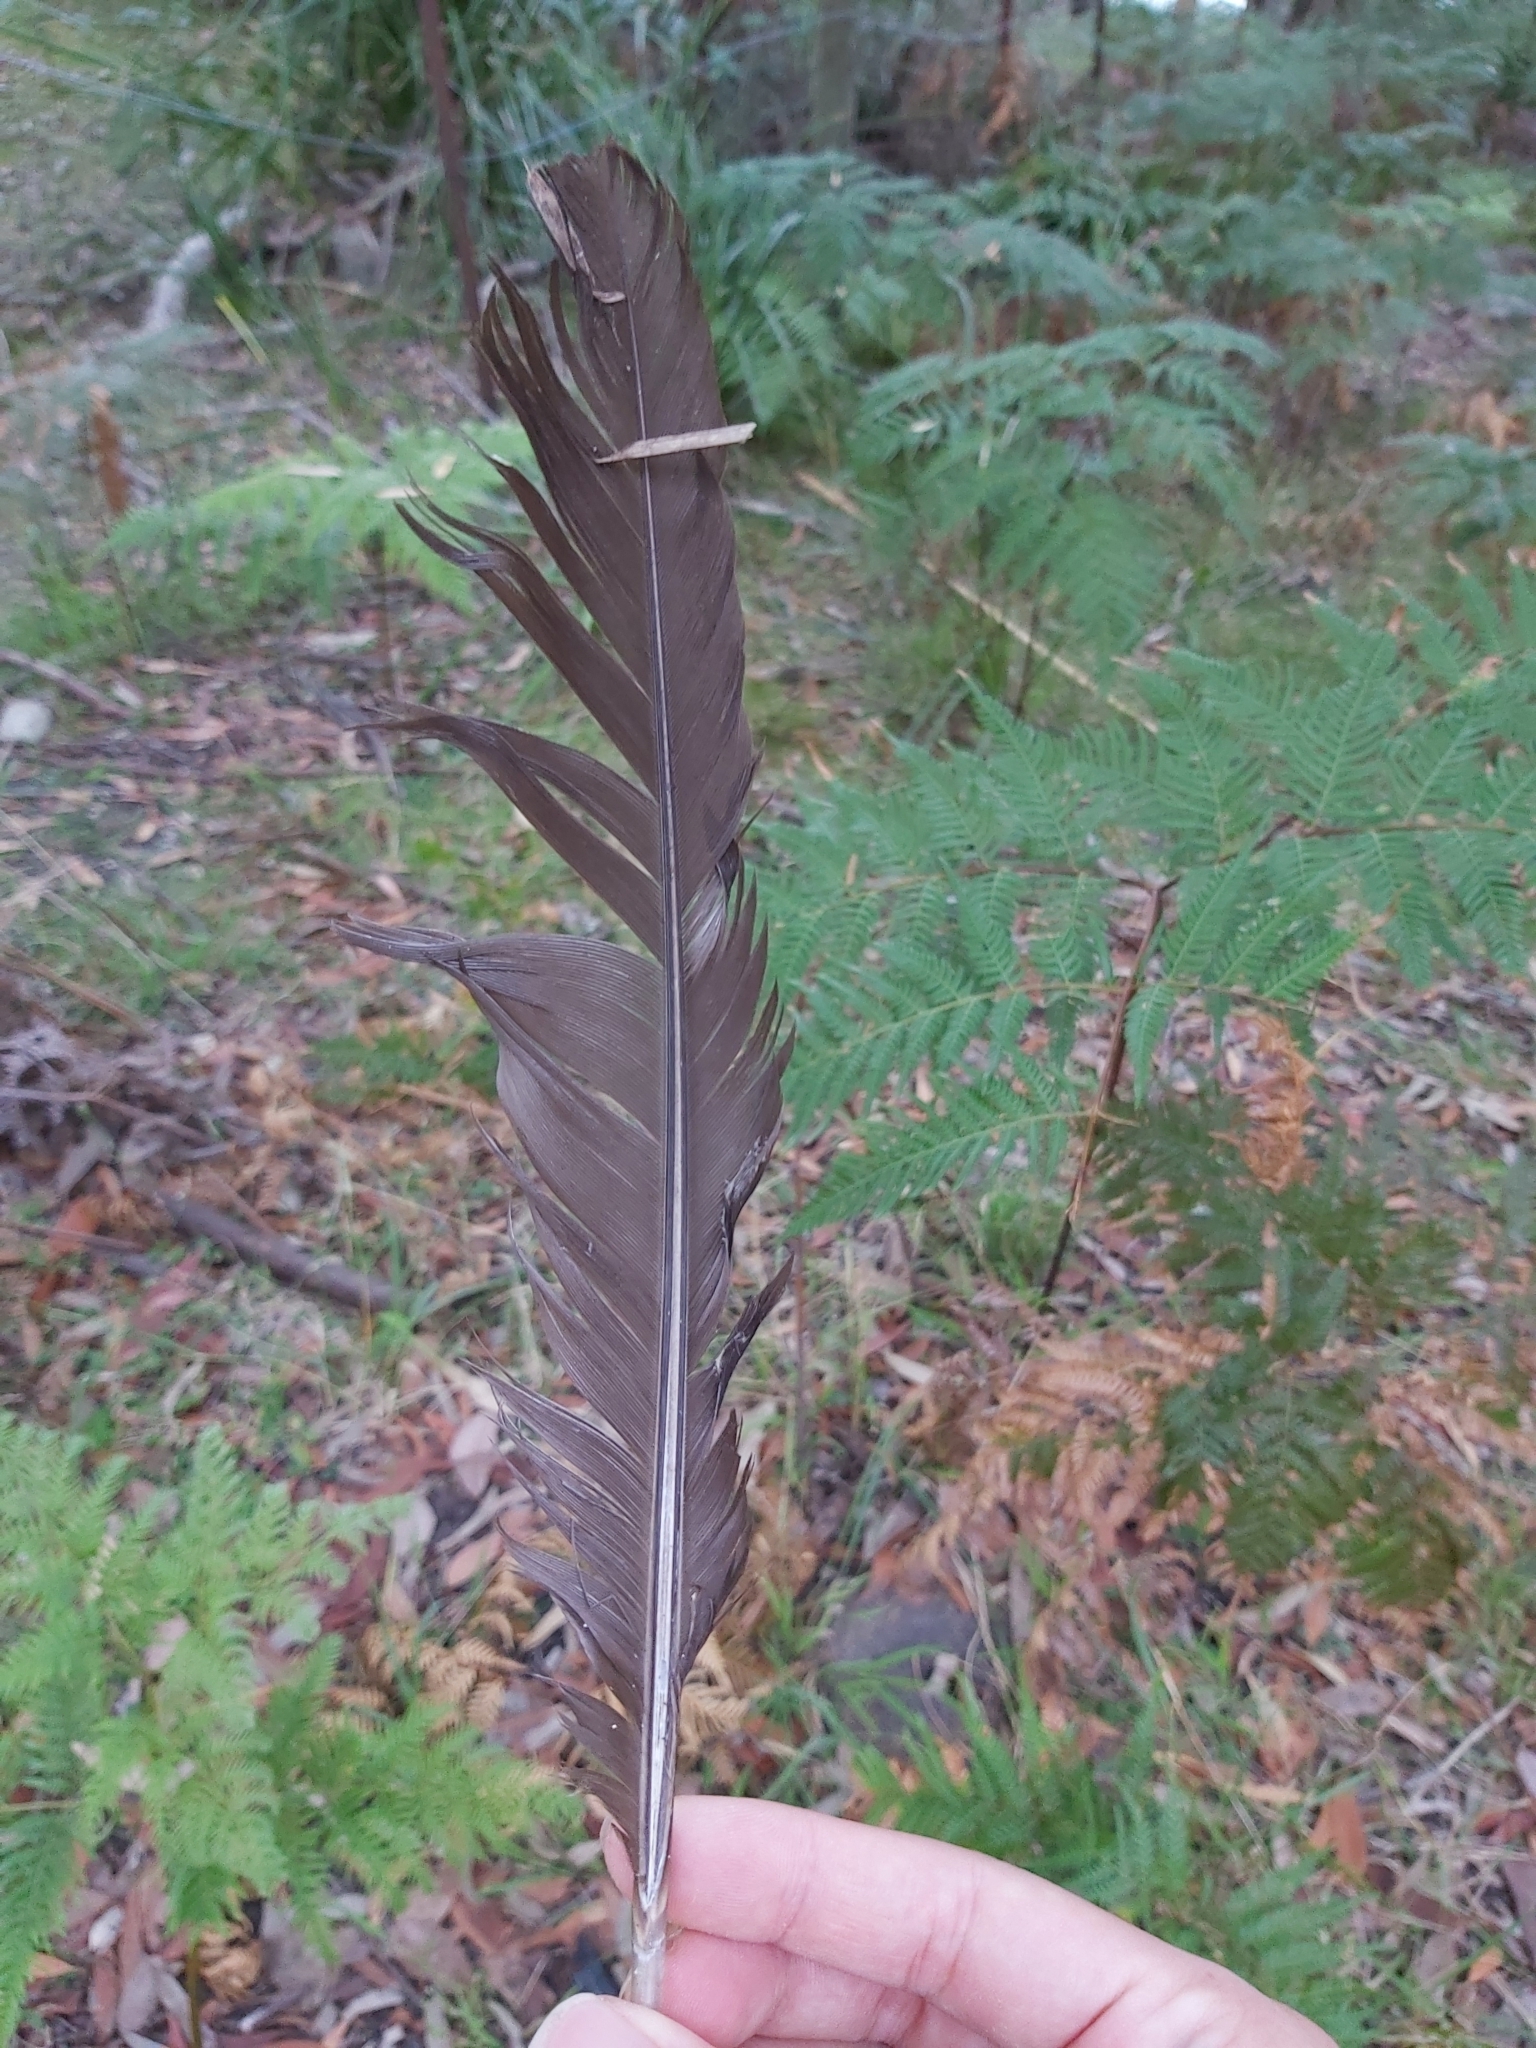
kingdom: Animalia
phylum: Chordata
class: Aves
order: Galliformes
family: Megapodiidae
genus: Alectura
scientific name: Alectura lathami
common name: Australian brushturkey
